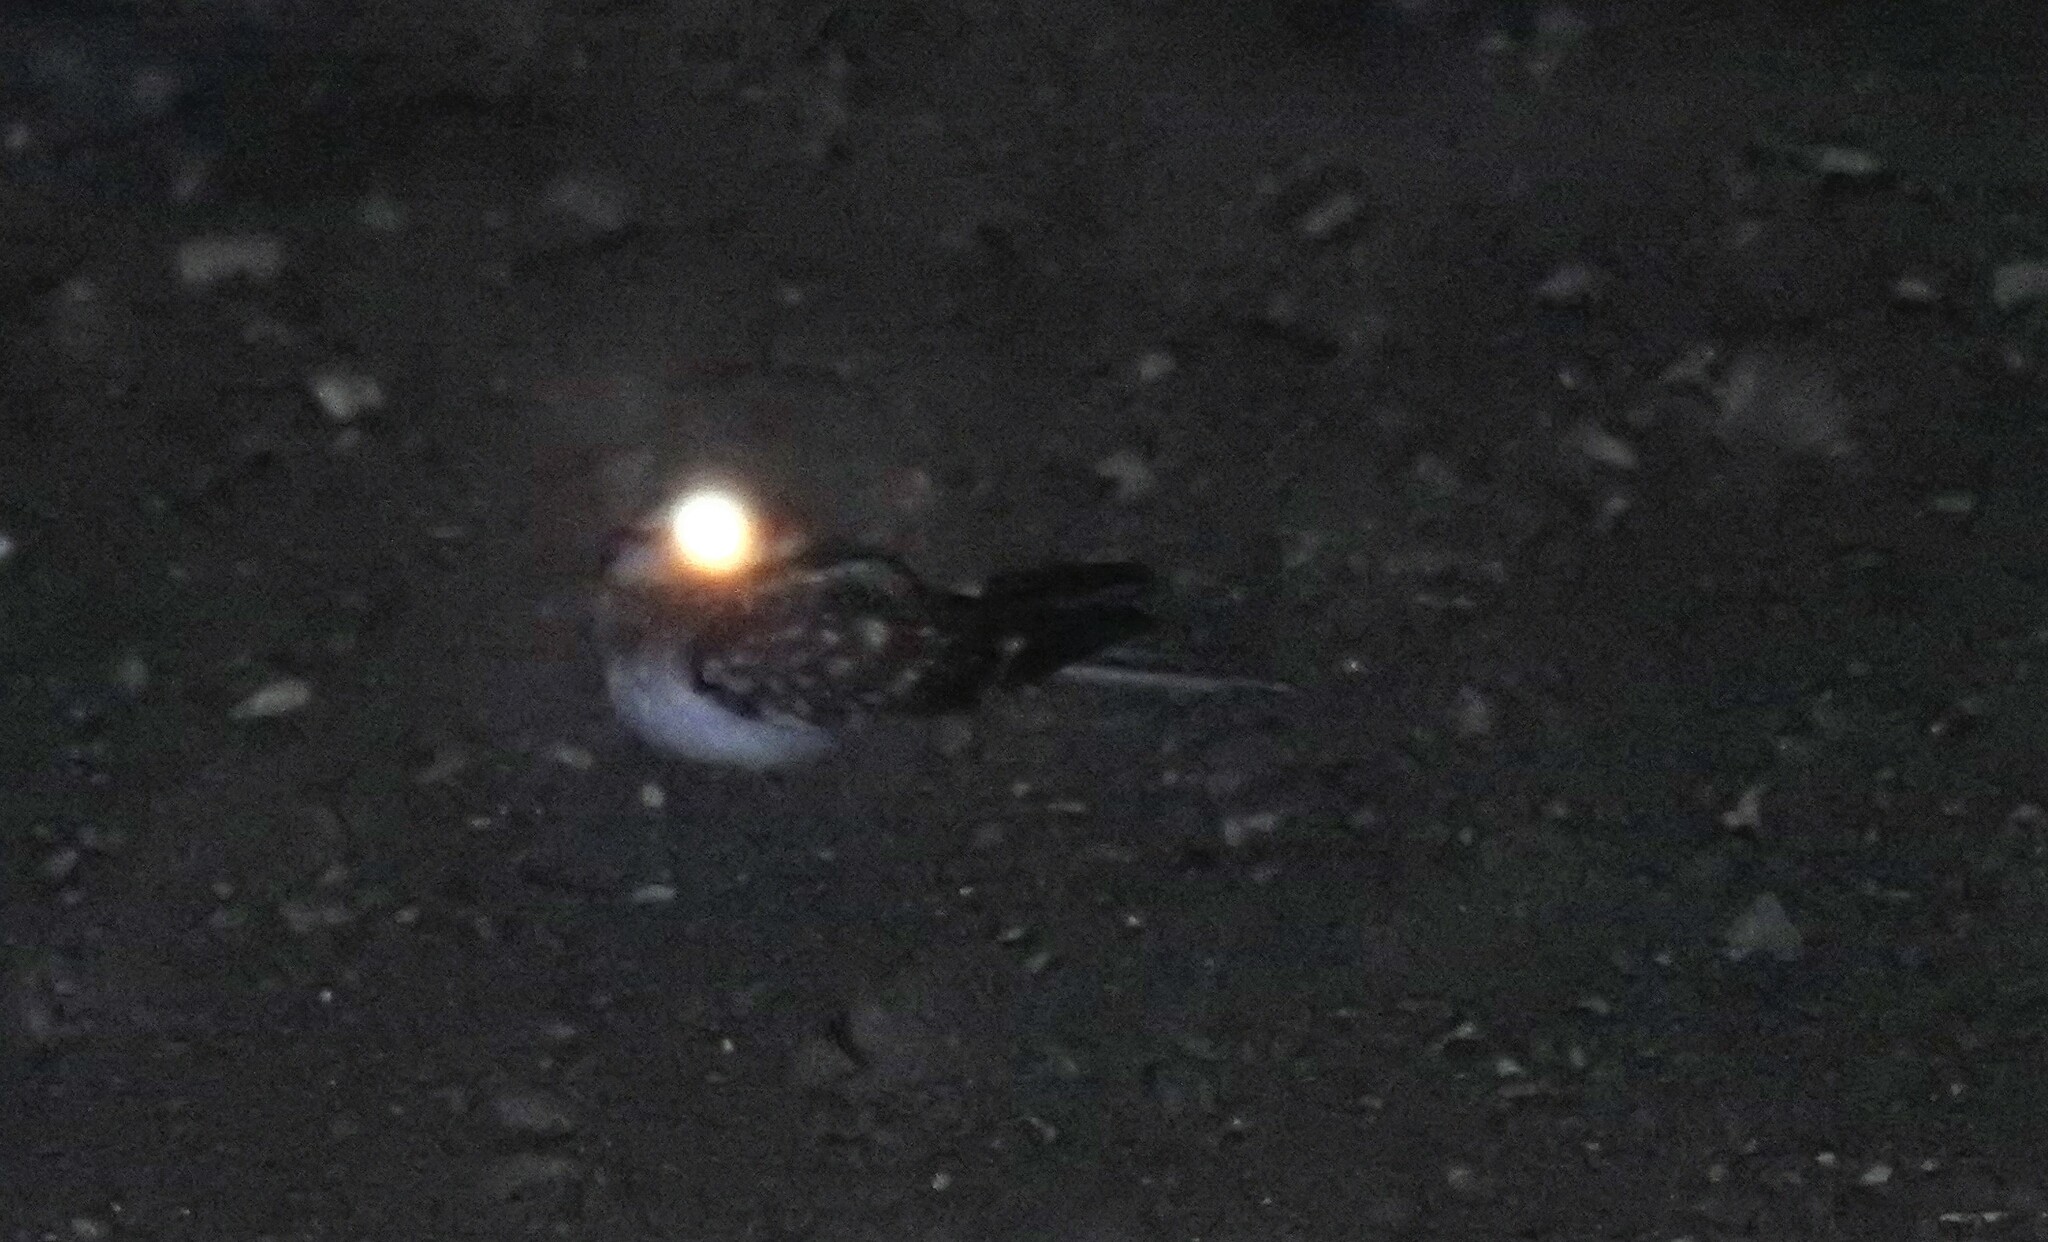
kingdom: Animalia
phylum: Chordata
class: Aves
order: Caprimulgiformes
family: Caprimulgidae
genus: Hydropsalis
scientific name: Hydropsalis cayennensis
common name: White-tailed nightjar
